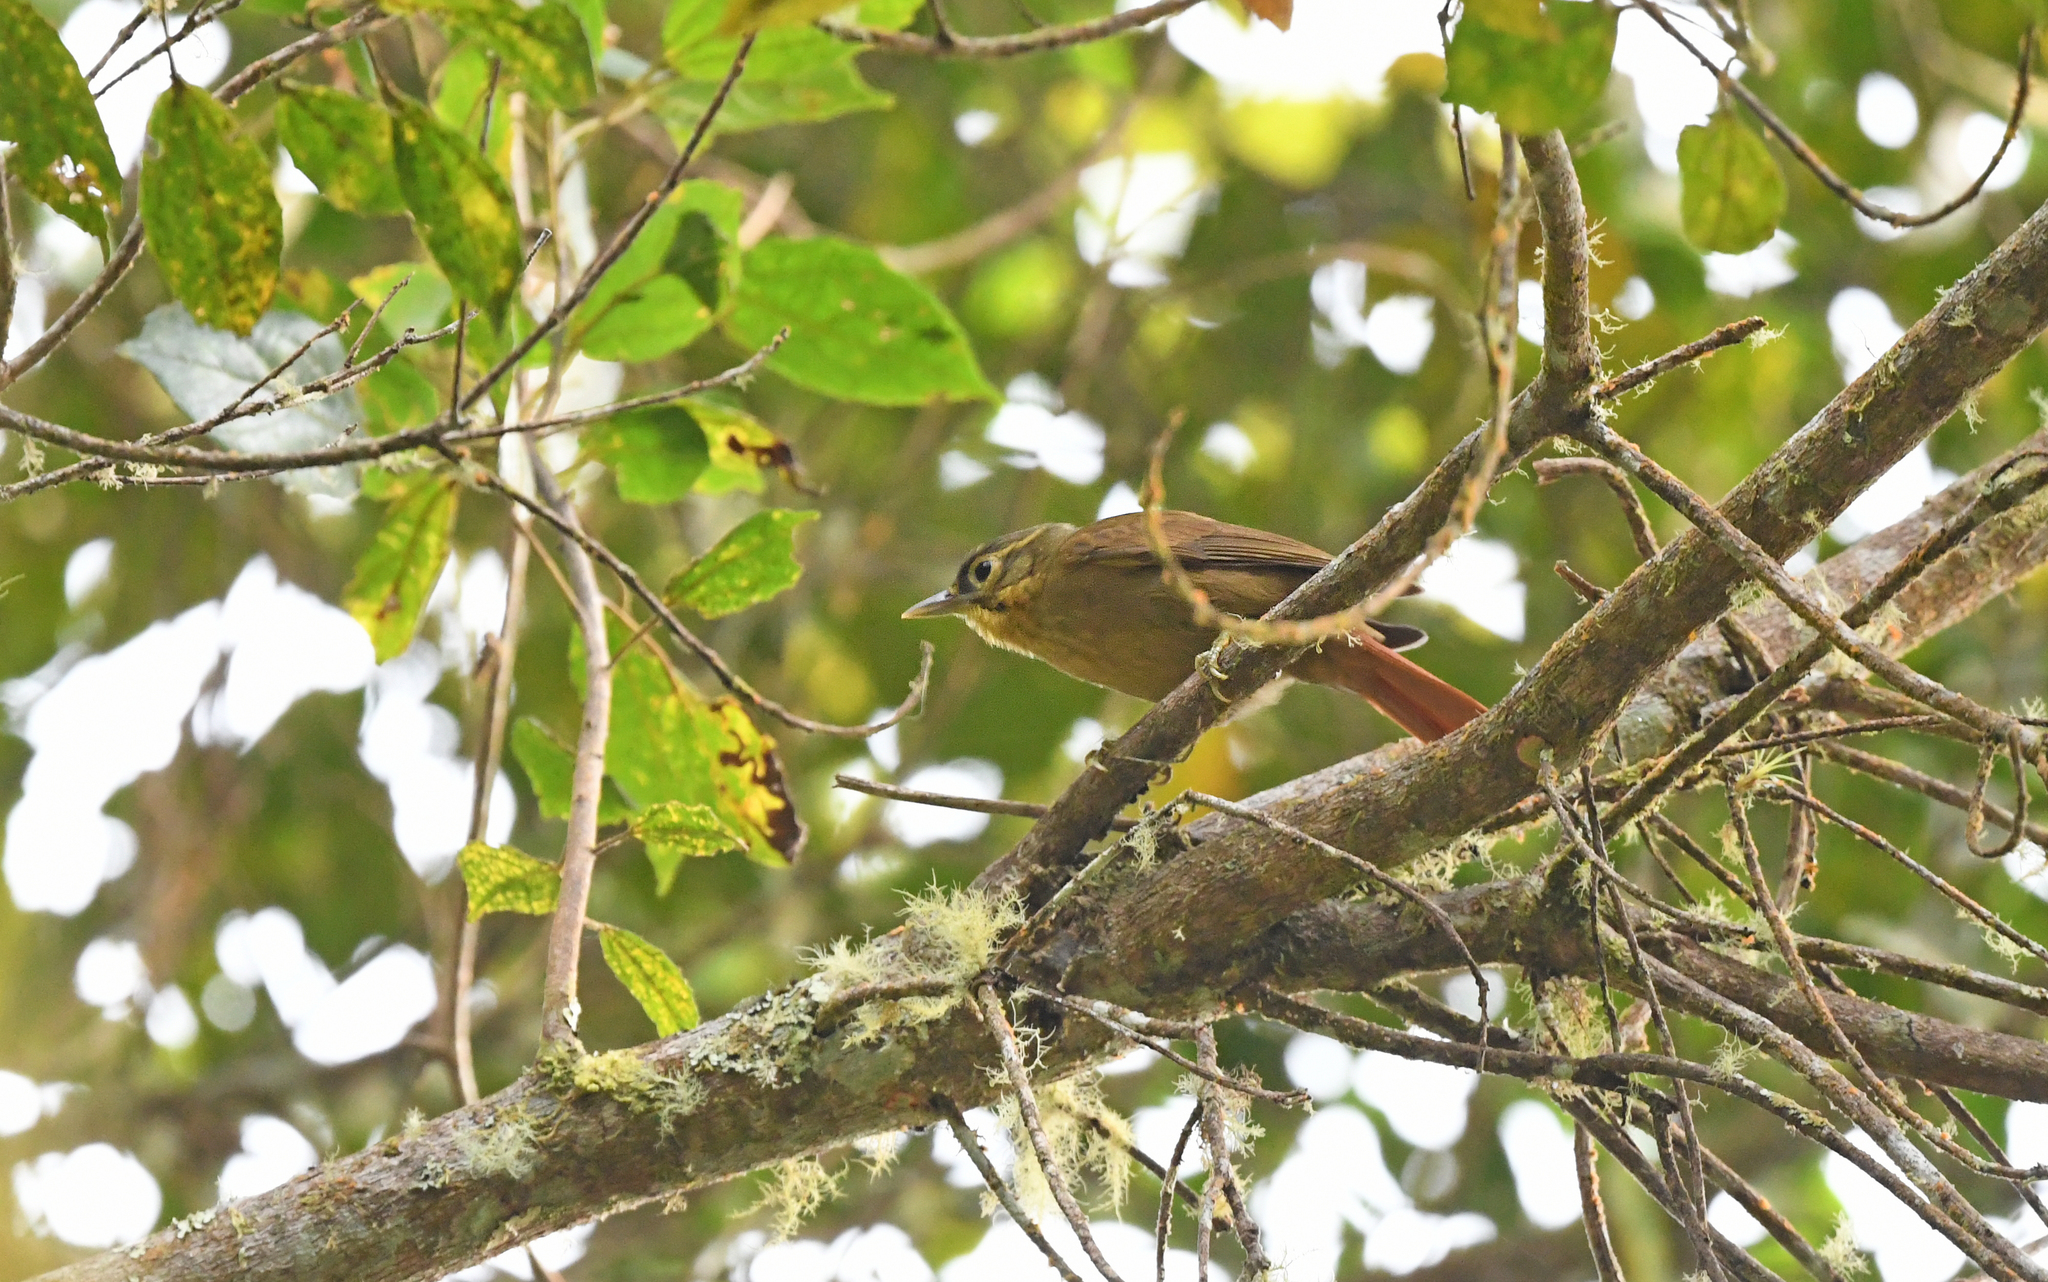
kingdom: Animalia
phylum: Chordata
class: Aves
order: Passeriformes
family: Furnariidae
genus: Anabacerthia
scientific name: Anabacerthia striaticollis
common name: Montane foliage-gleaner
